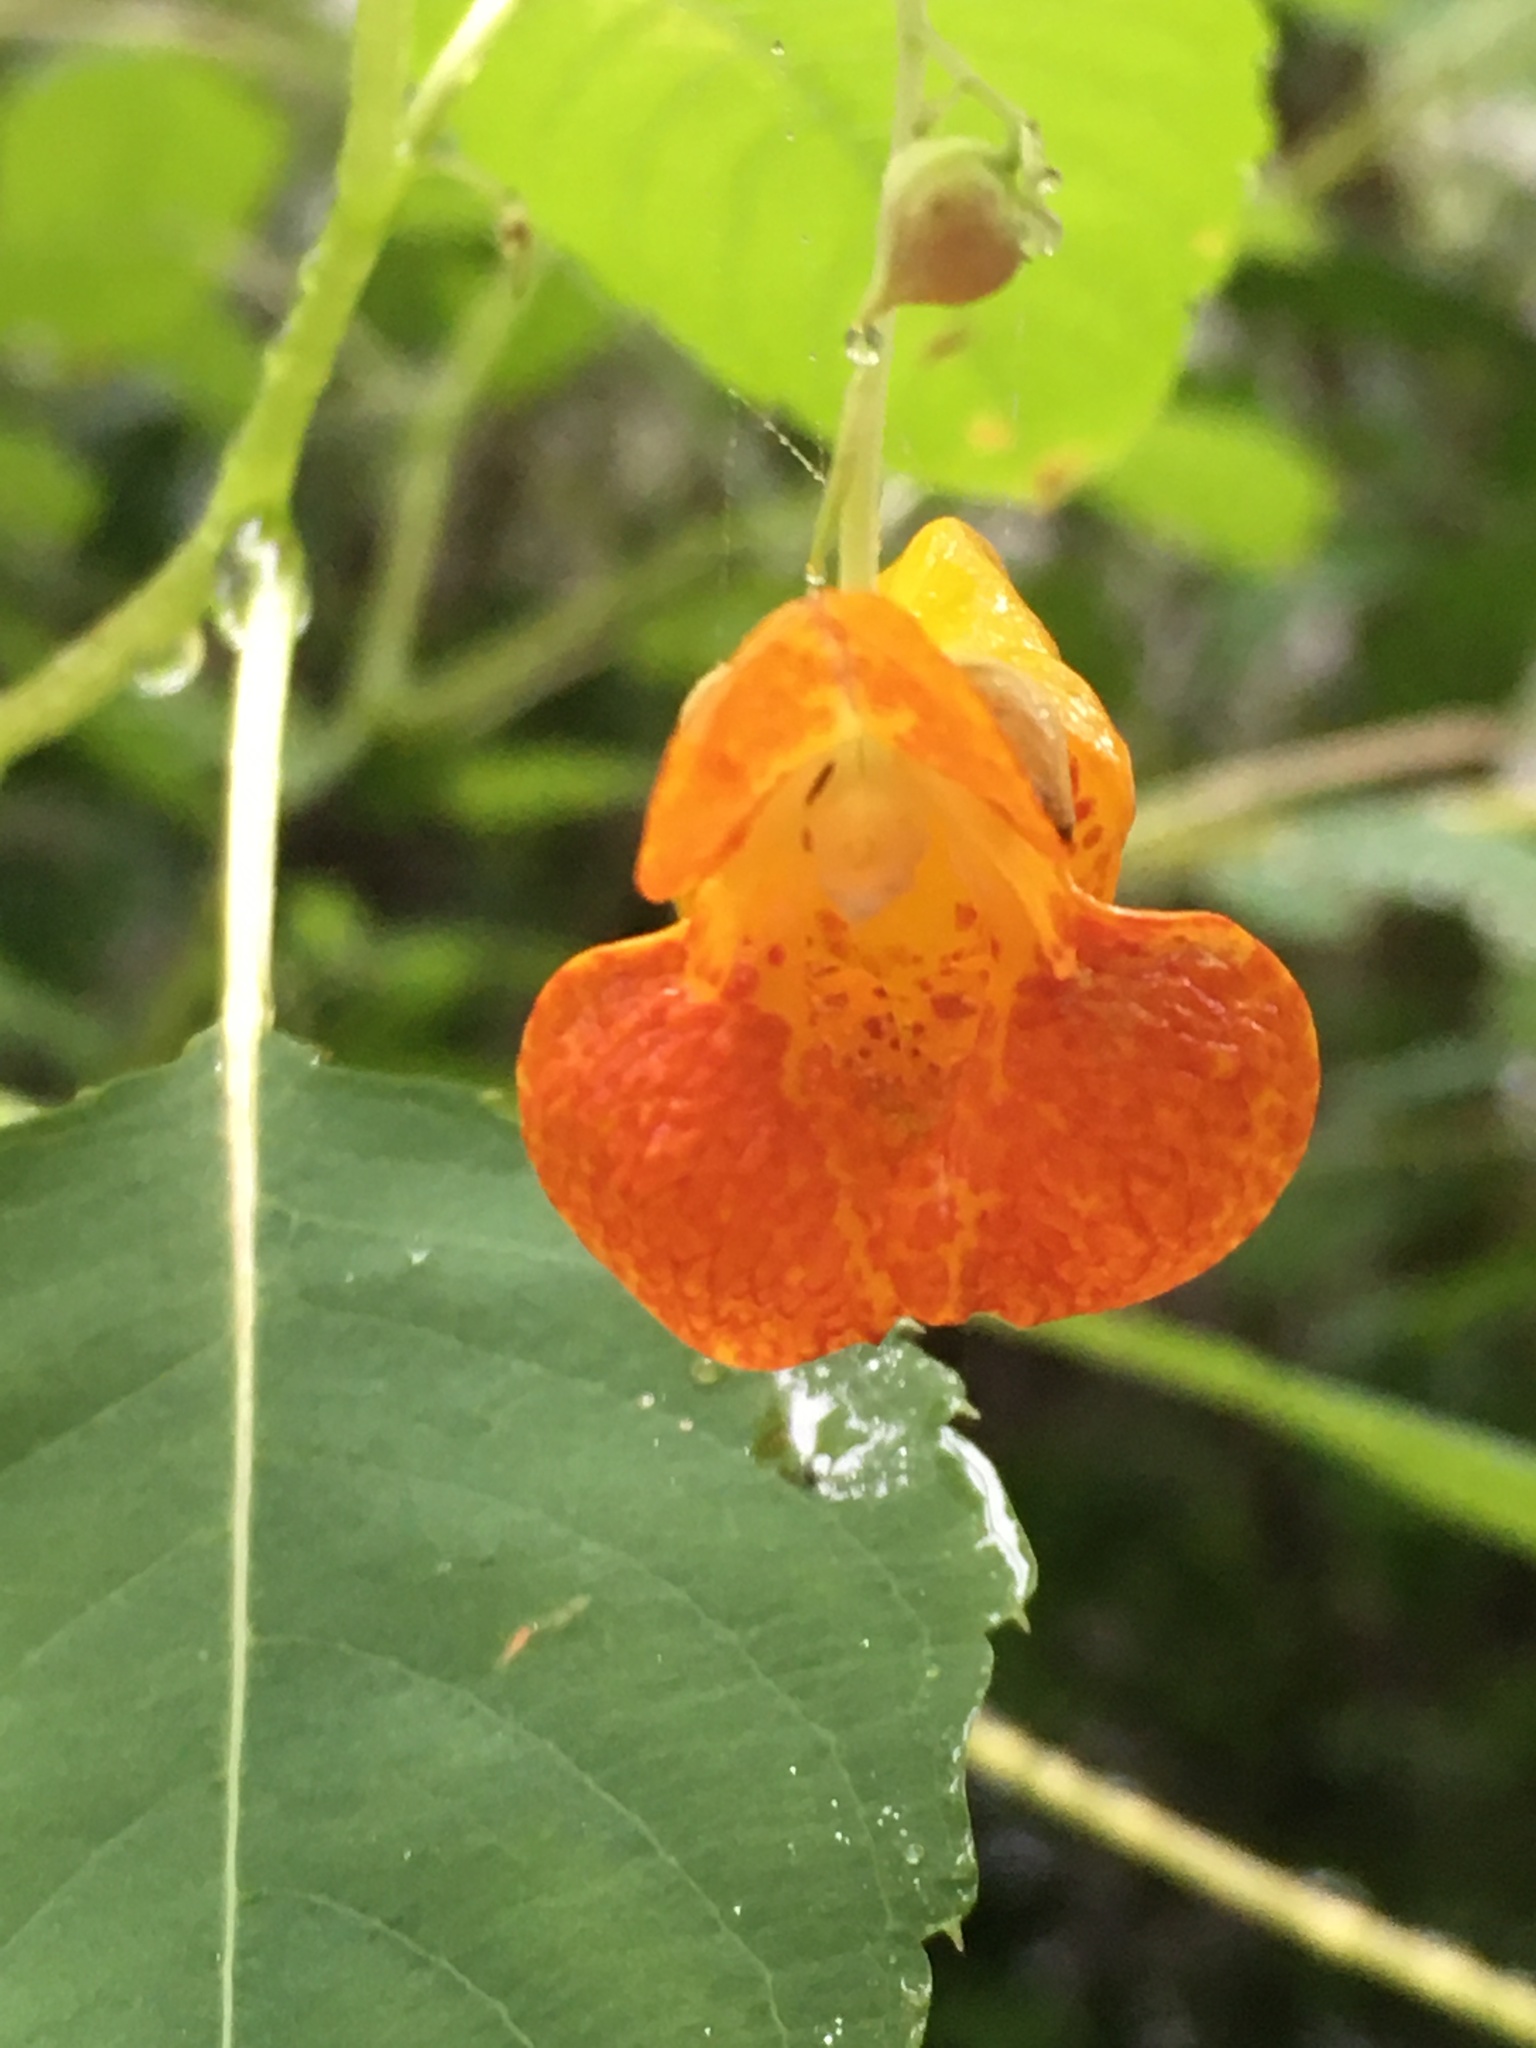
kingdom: Plantae
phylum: Tracheophyta
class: Magnoliopsida
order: Ericales
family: Balsaminaceae
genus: Impatiens
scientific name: Impatiens capensis
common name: Orange balsam
